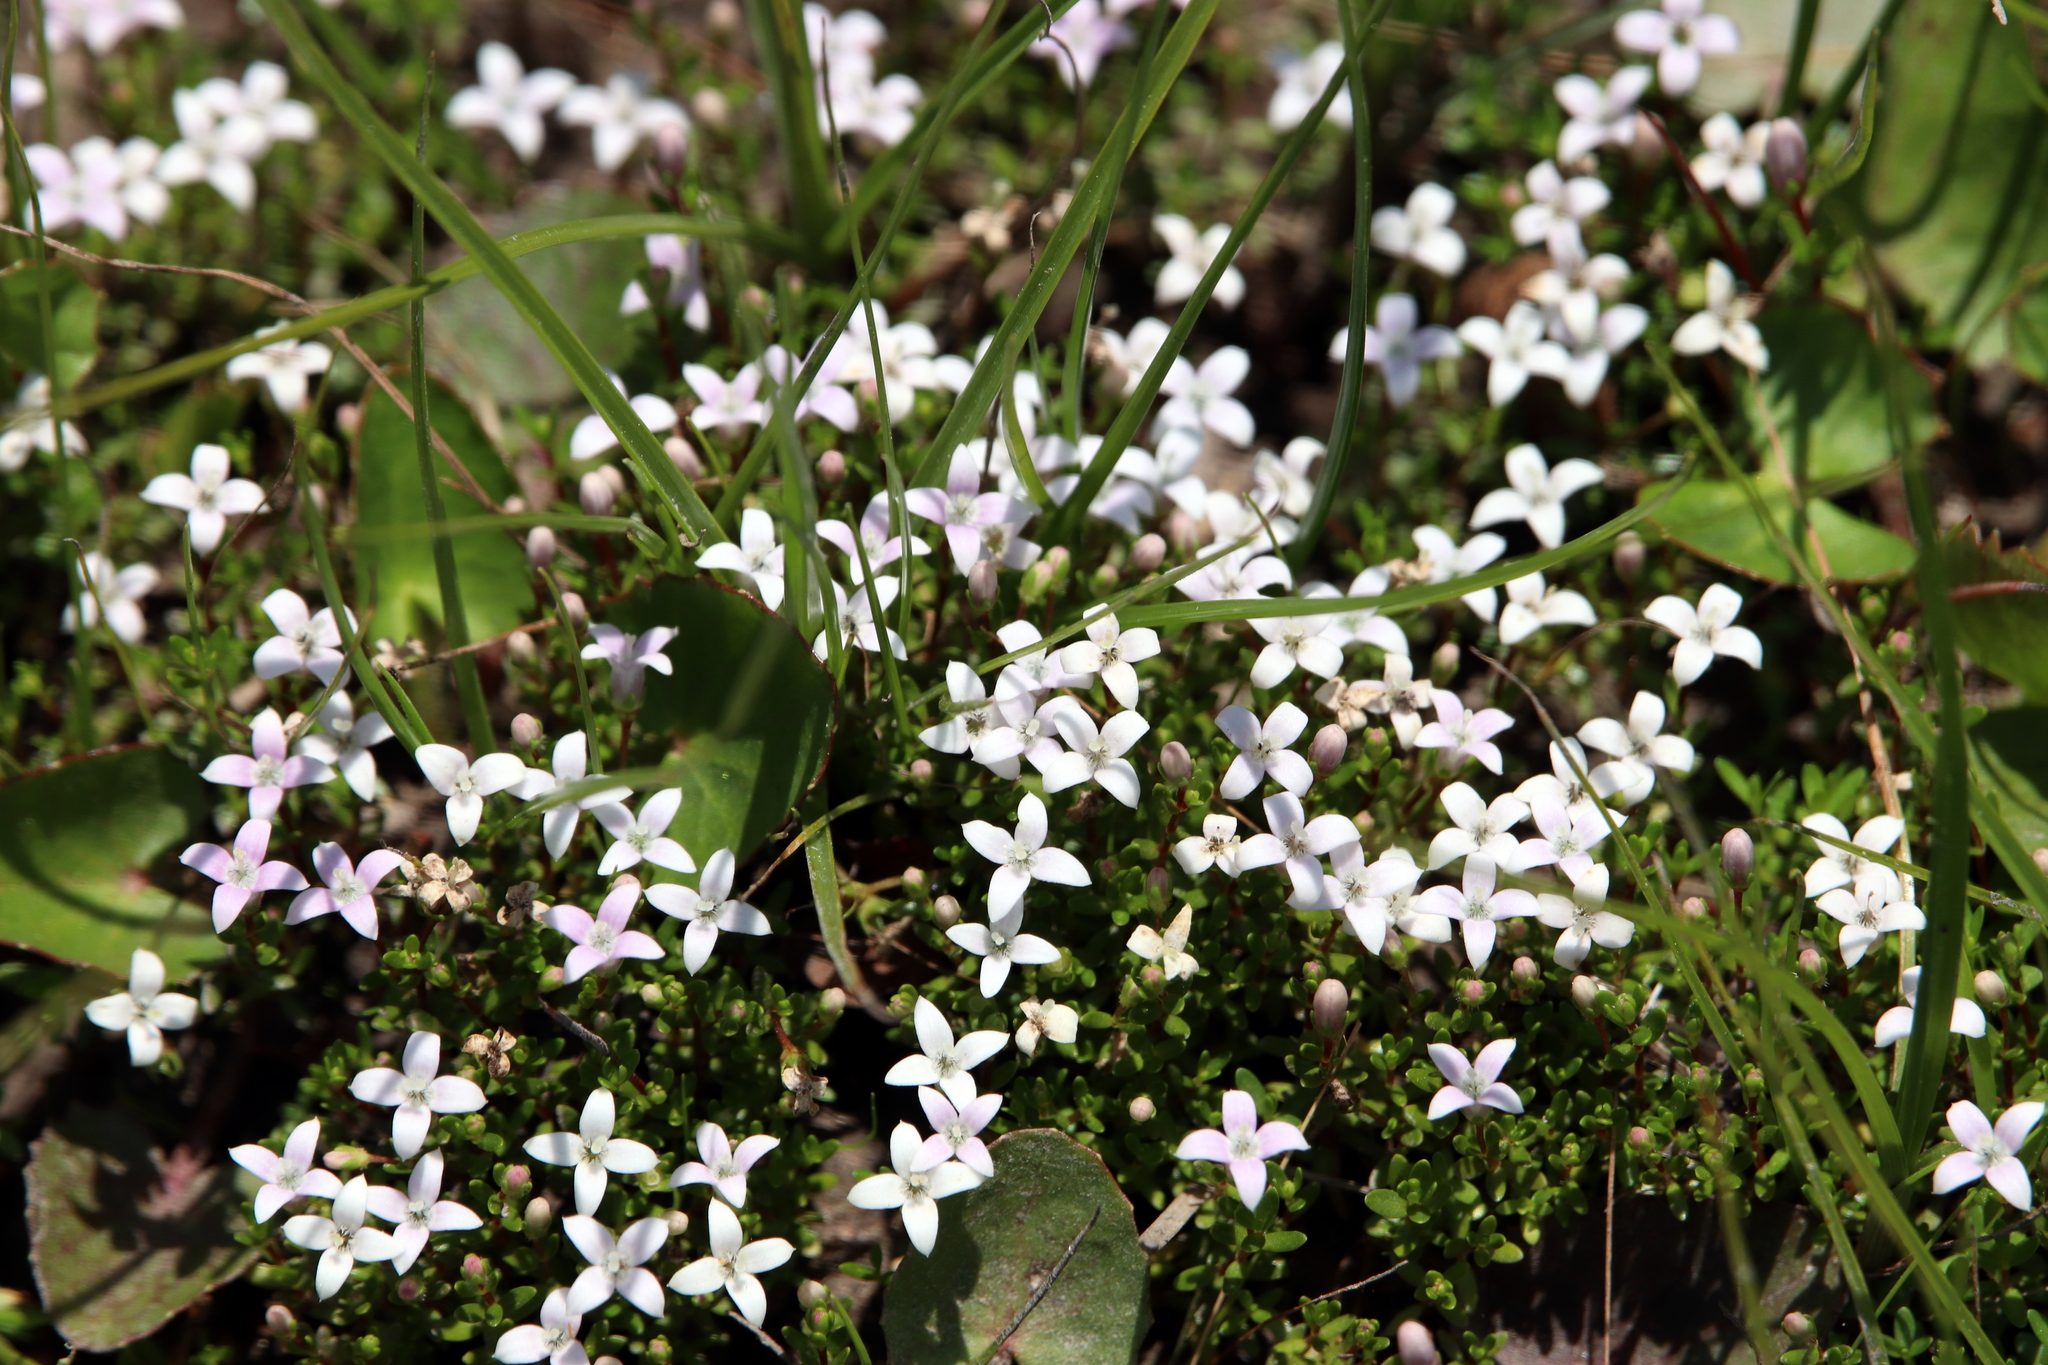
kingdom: Plantae
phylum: Tracheophyta
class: Magnoliopsida
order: Gentianales
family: Rubiaceae
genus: Houstonia
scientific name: Houstonia micrantha
